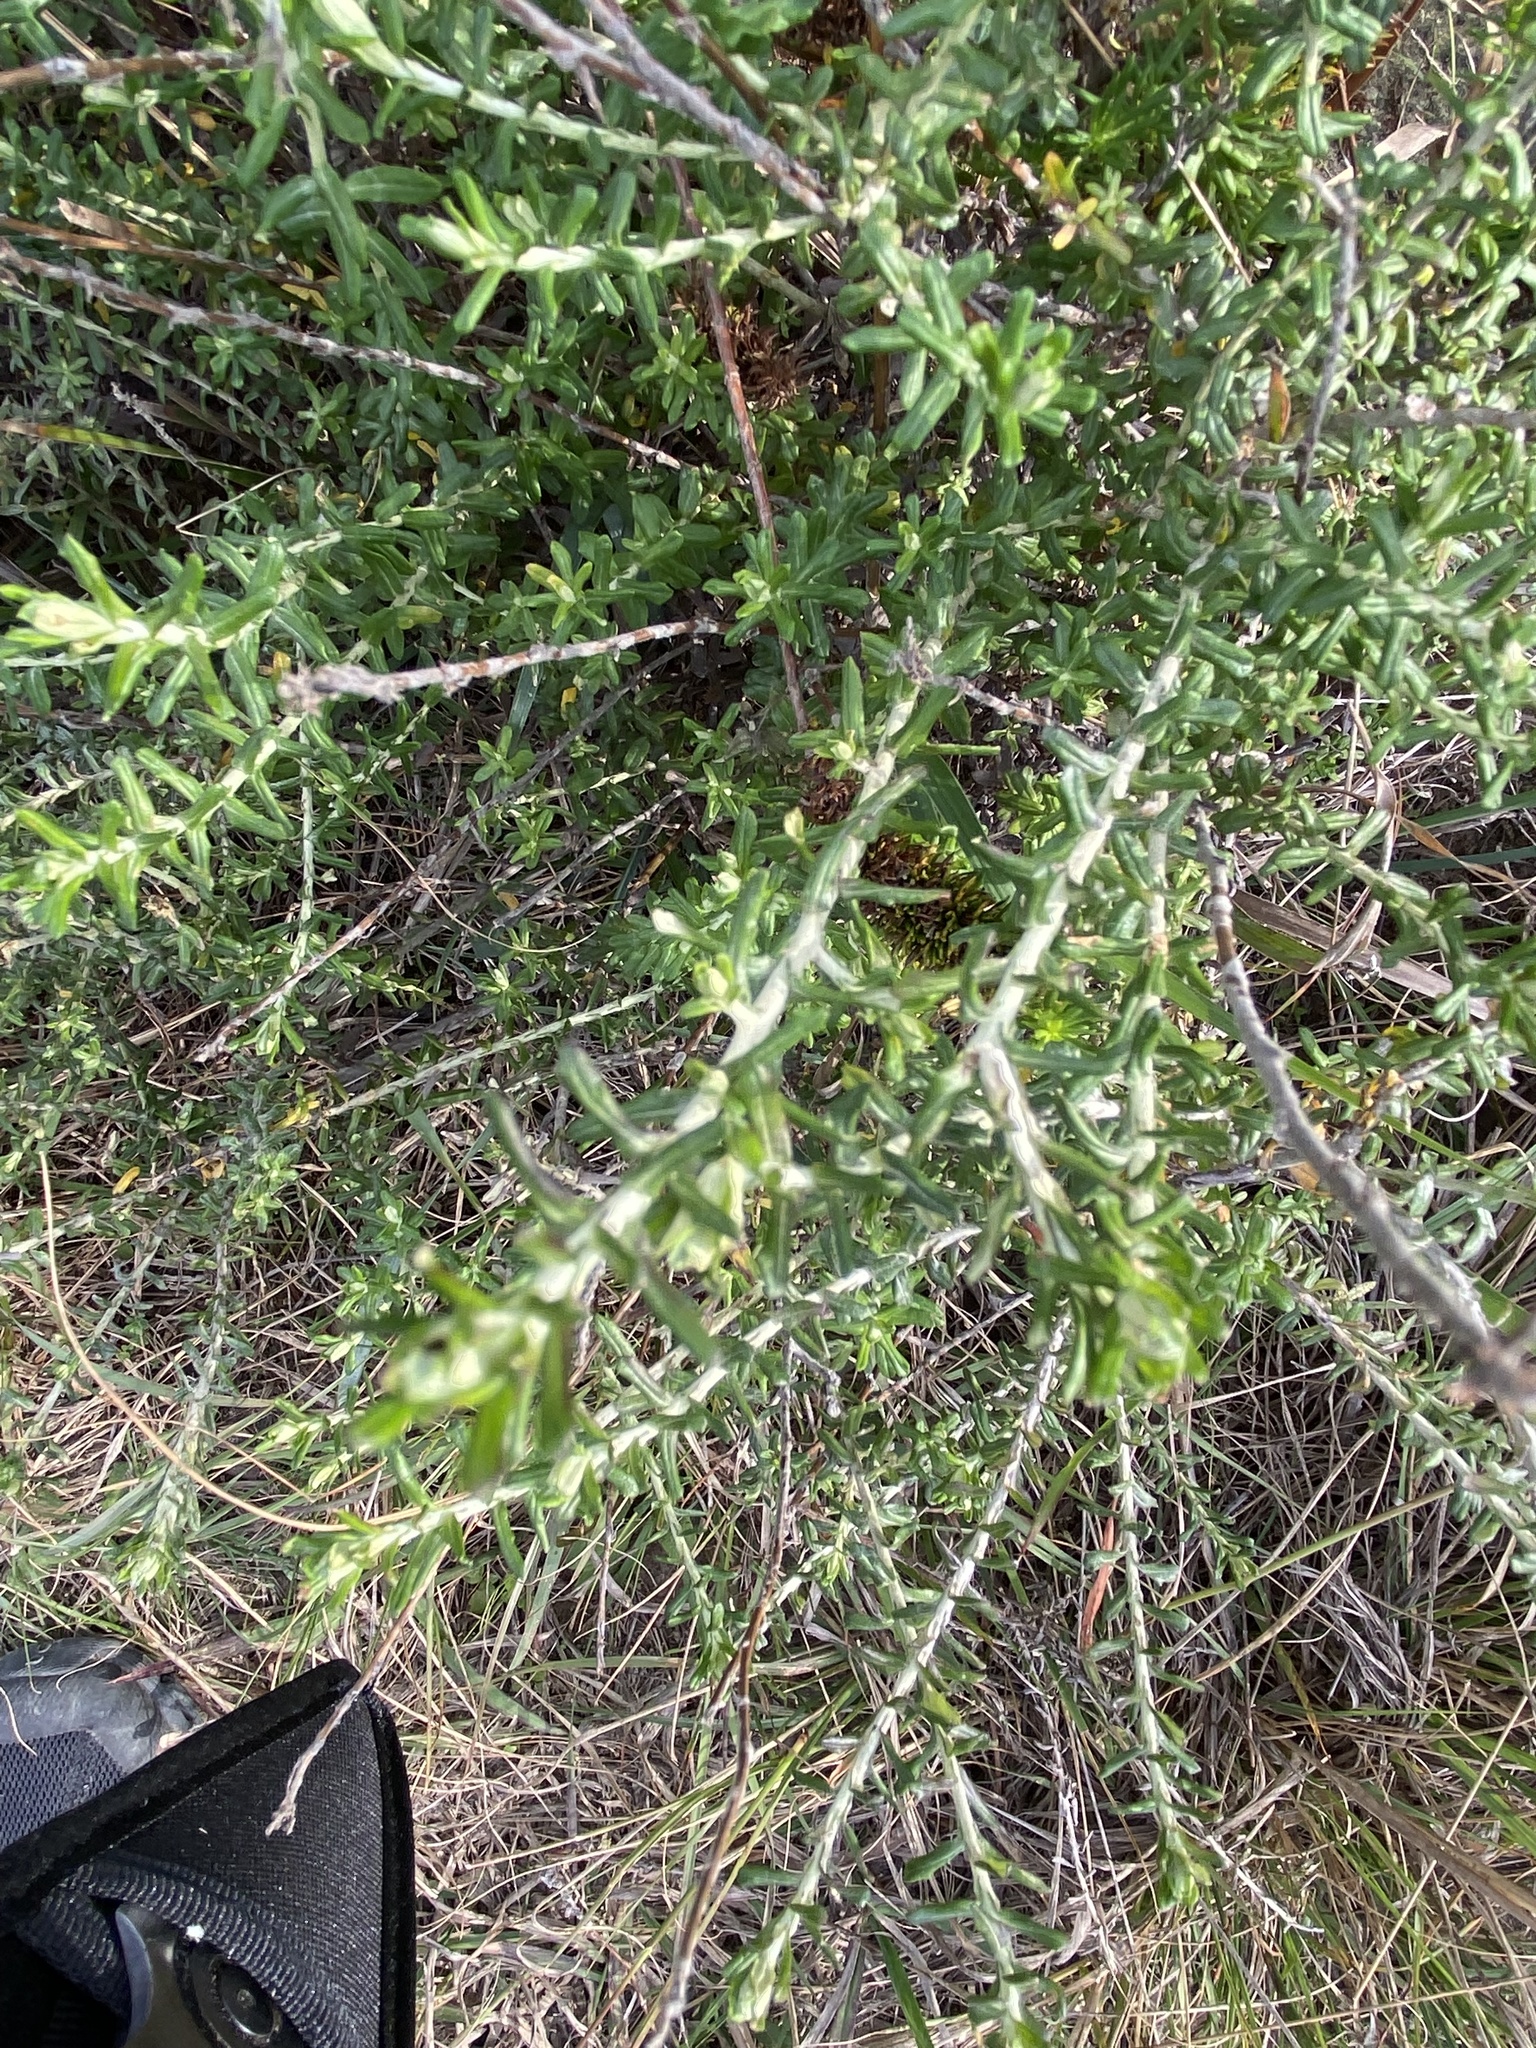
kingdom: Plantae
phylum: Tracheophyta
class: Magnoliopsida
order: Asterales
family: Asteraceae
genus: Helichrysum
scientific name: Helichrysum felinum
